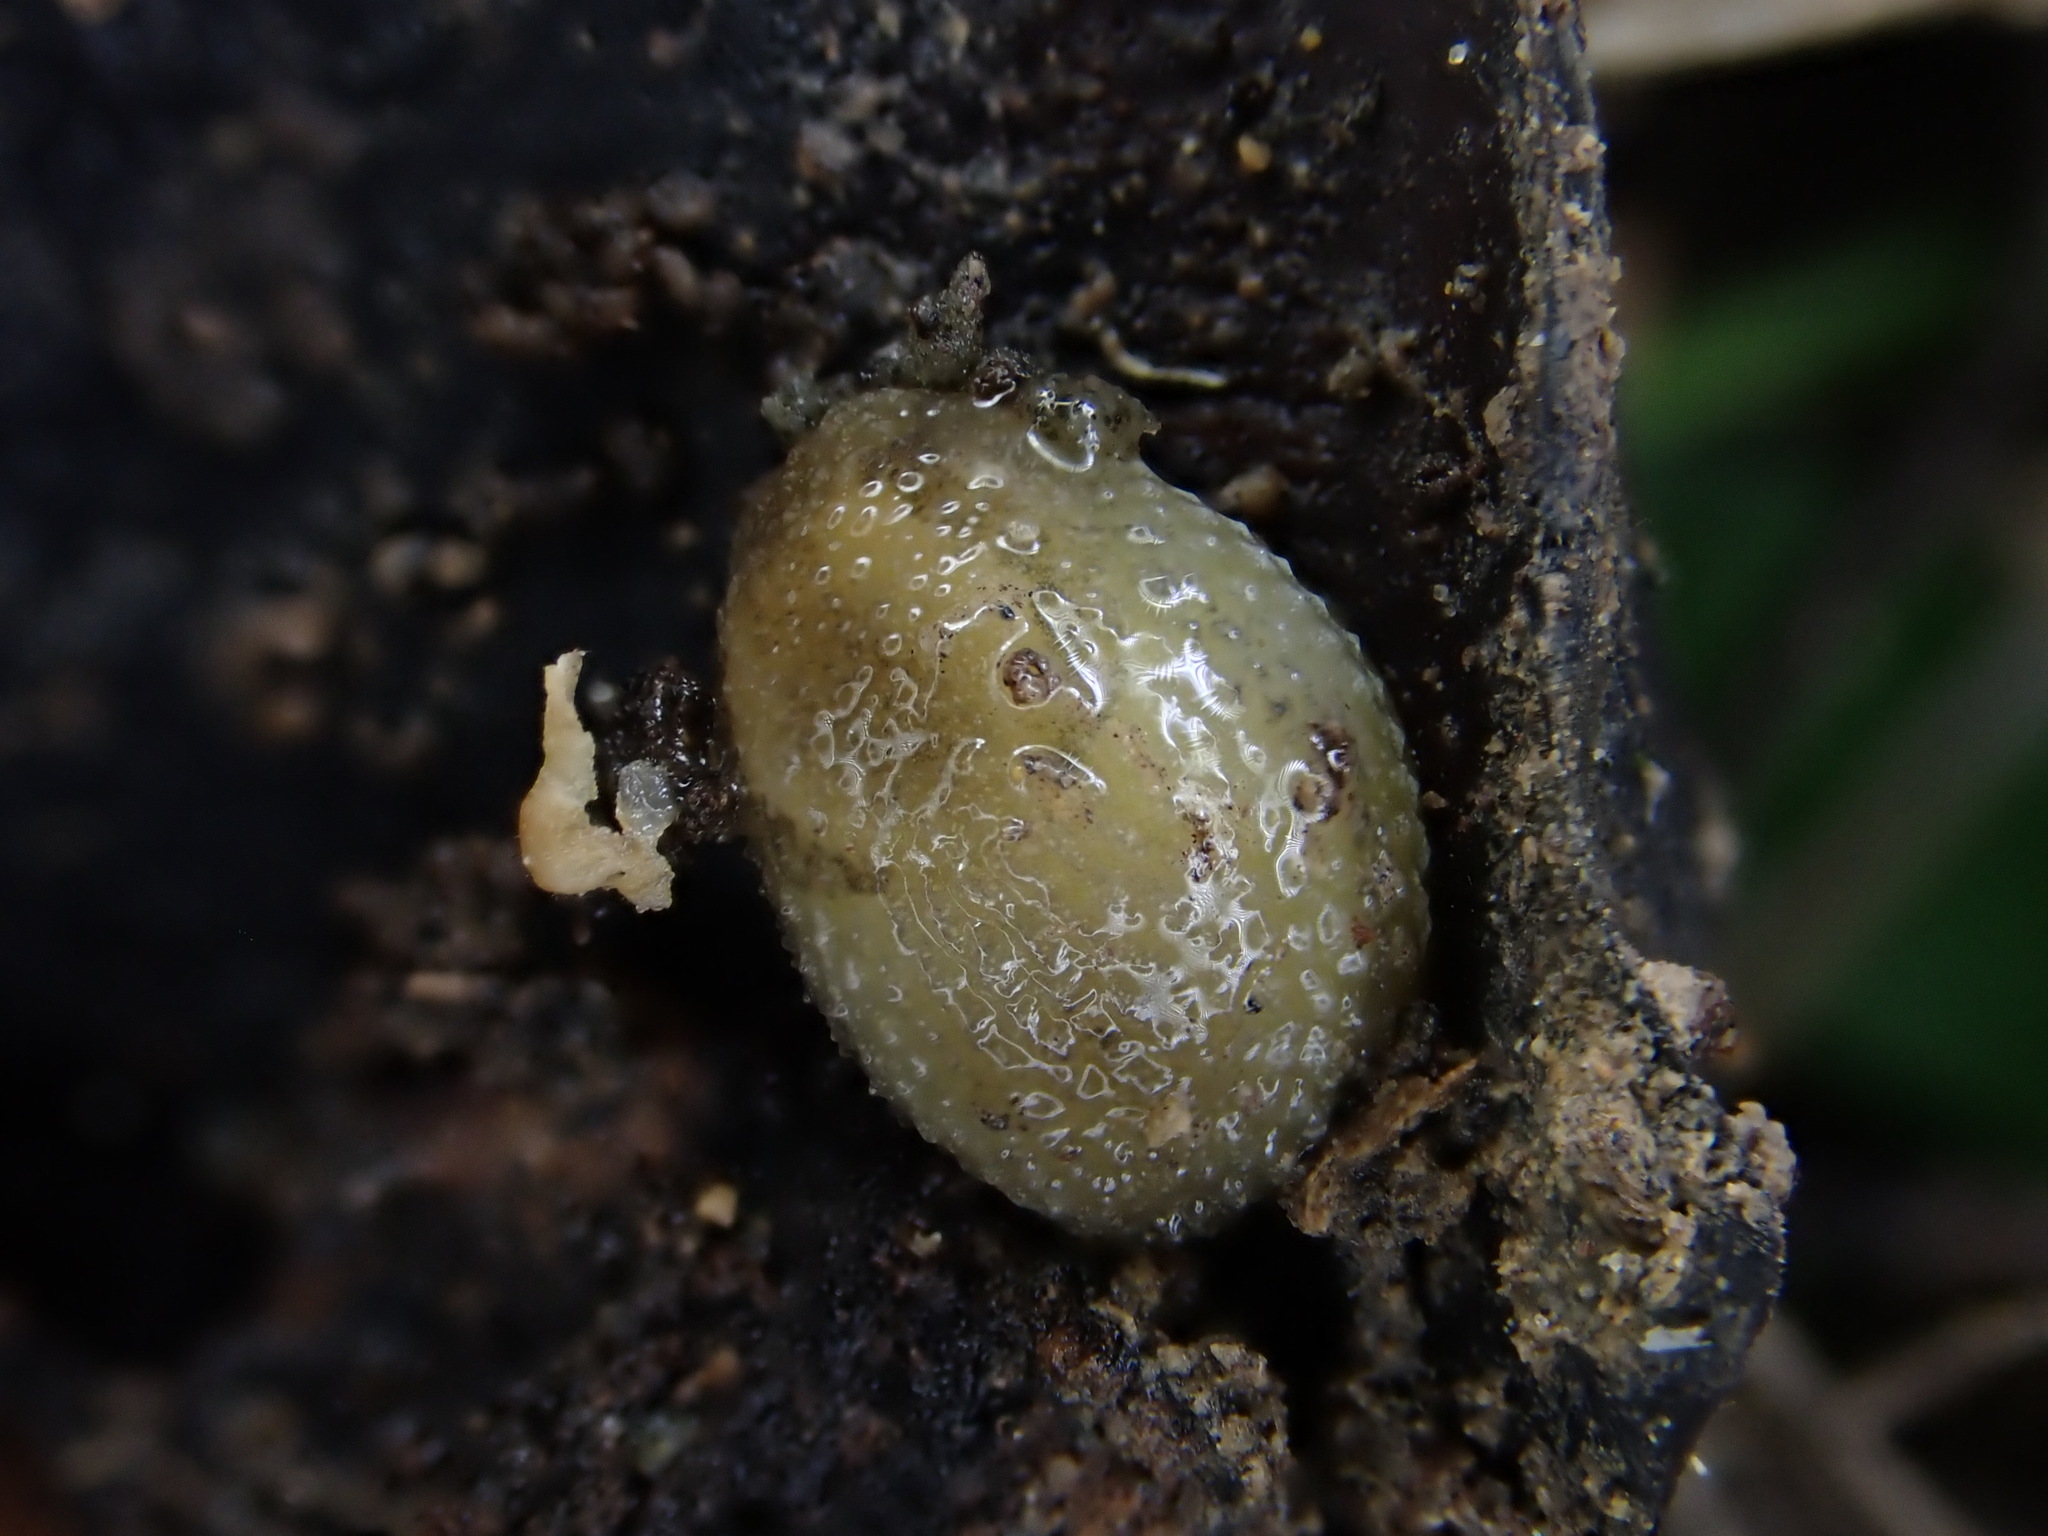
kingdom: Animalia
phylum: Mollusca
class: Gastropoda
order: Stylommatophora
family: Arionidae
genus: Arion
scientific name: Arion intermedius
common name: Hedgehog slug
